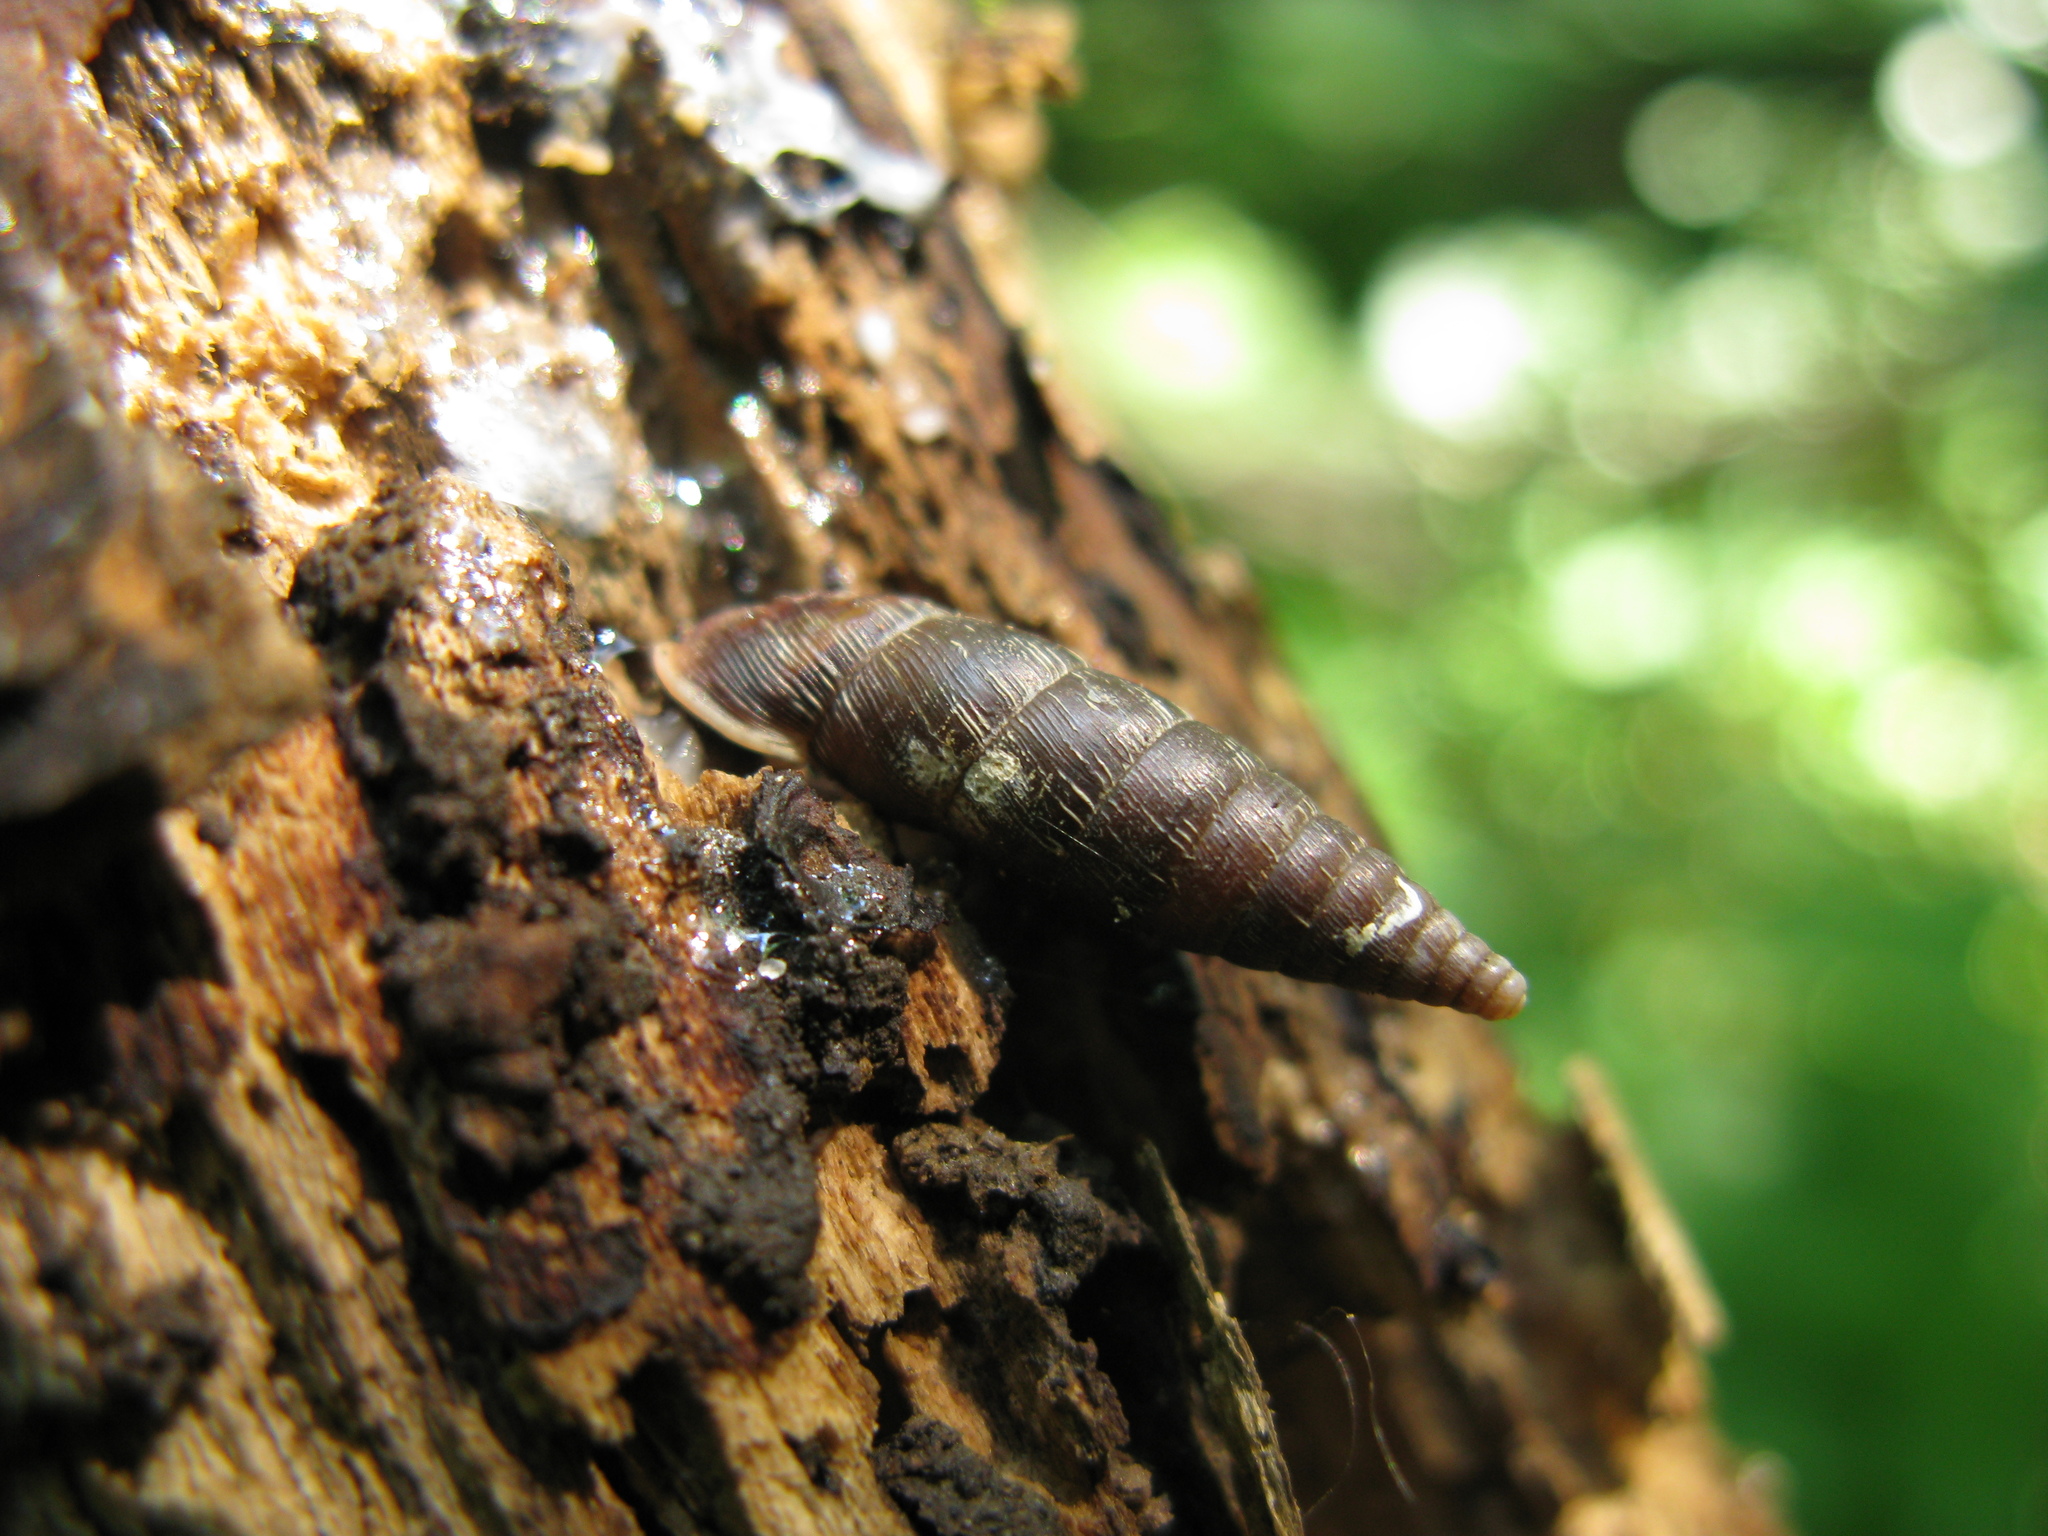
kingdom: Animalia
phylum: Mollusca
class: Gastropoda
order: Stylommatophora
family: Clausiliidae
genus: Elia
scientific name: Elia novorossica
